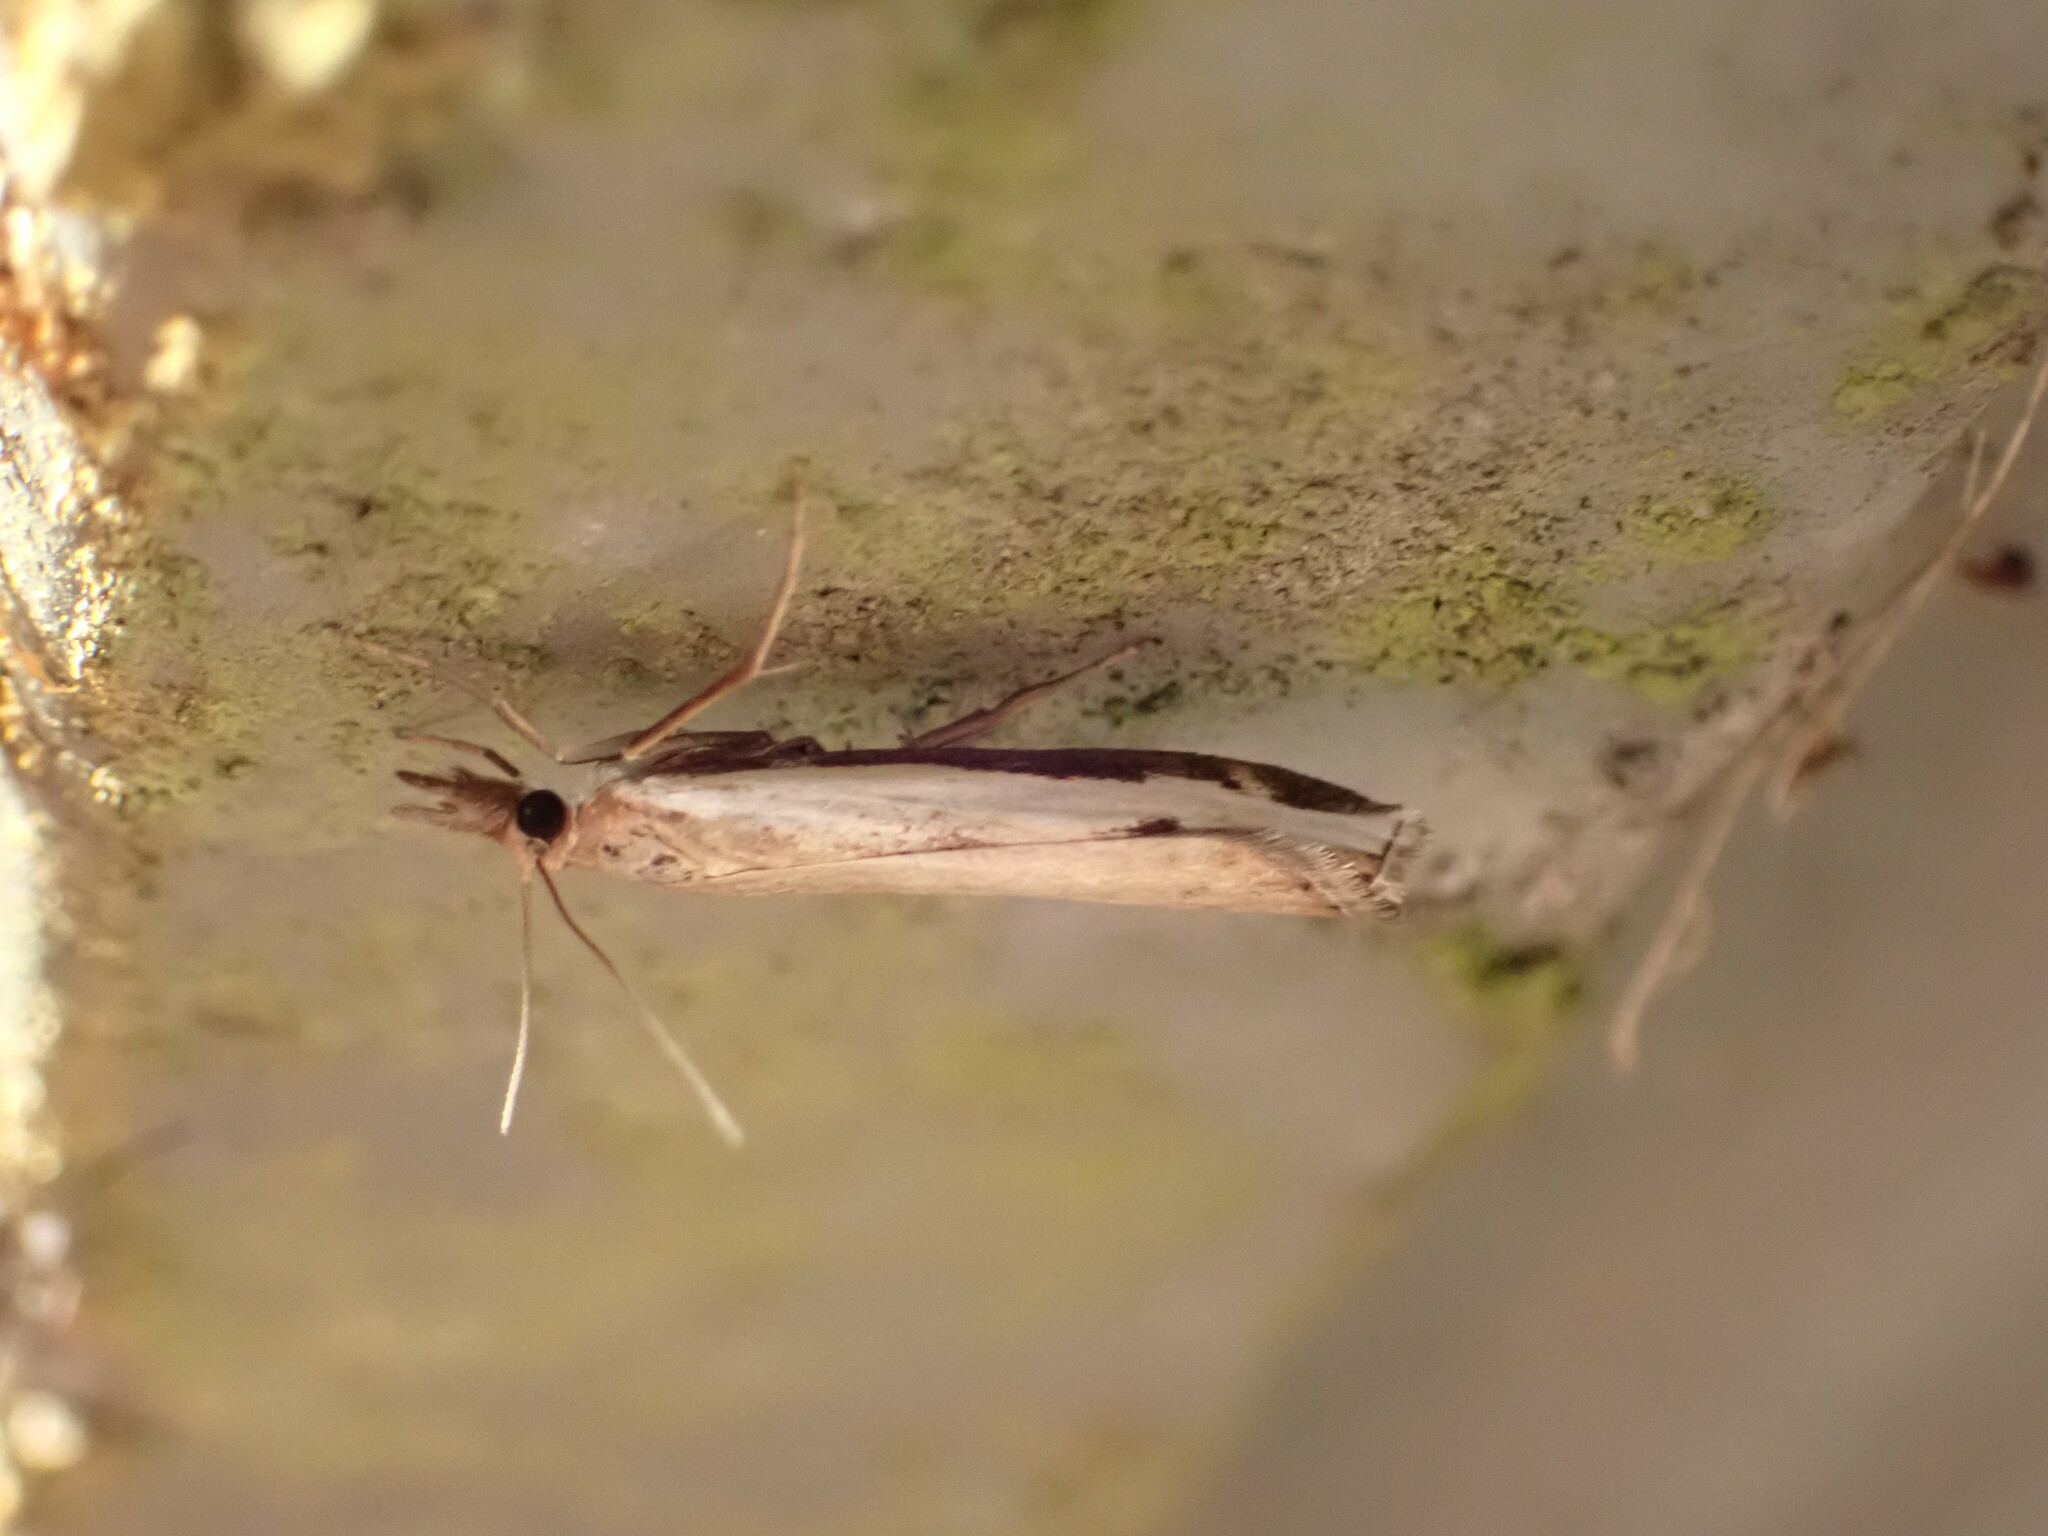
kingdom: Animalia
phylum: Arthropoda
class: Insecta
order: Lepidoptera
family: Crambidae
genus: Orocrambus
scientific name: Orocrambus flexuosellus
